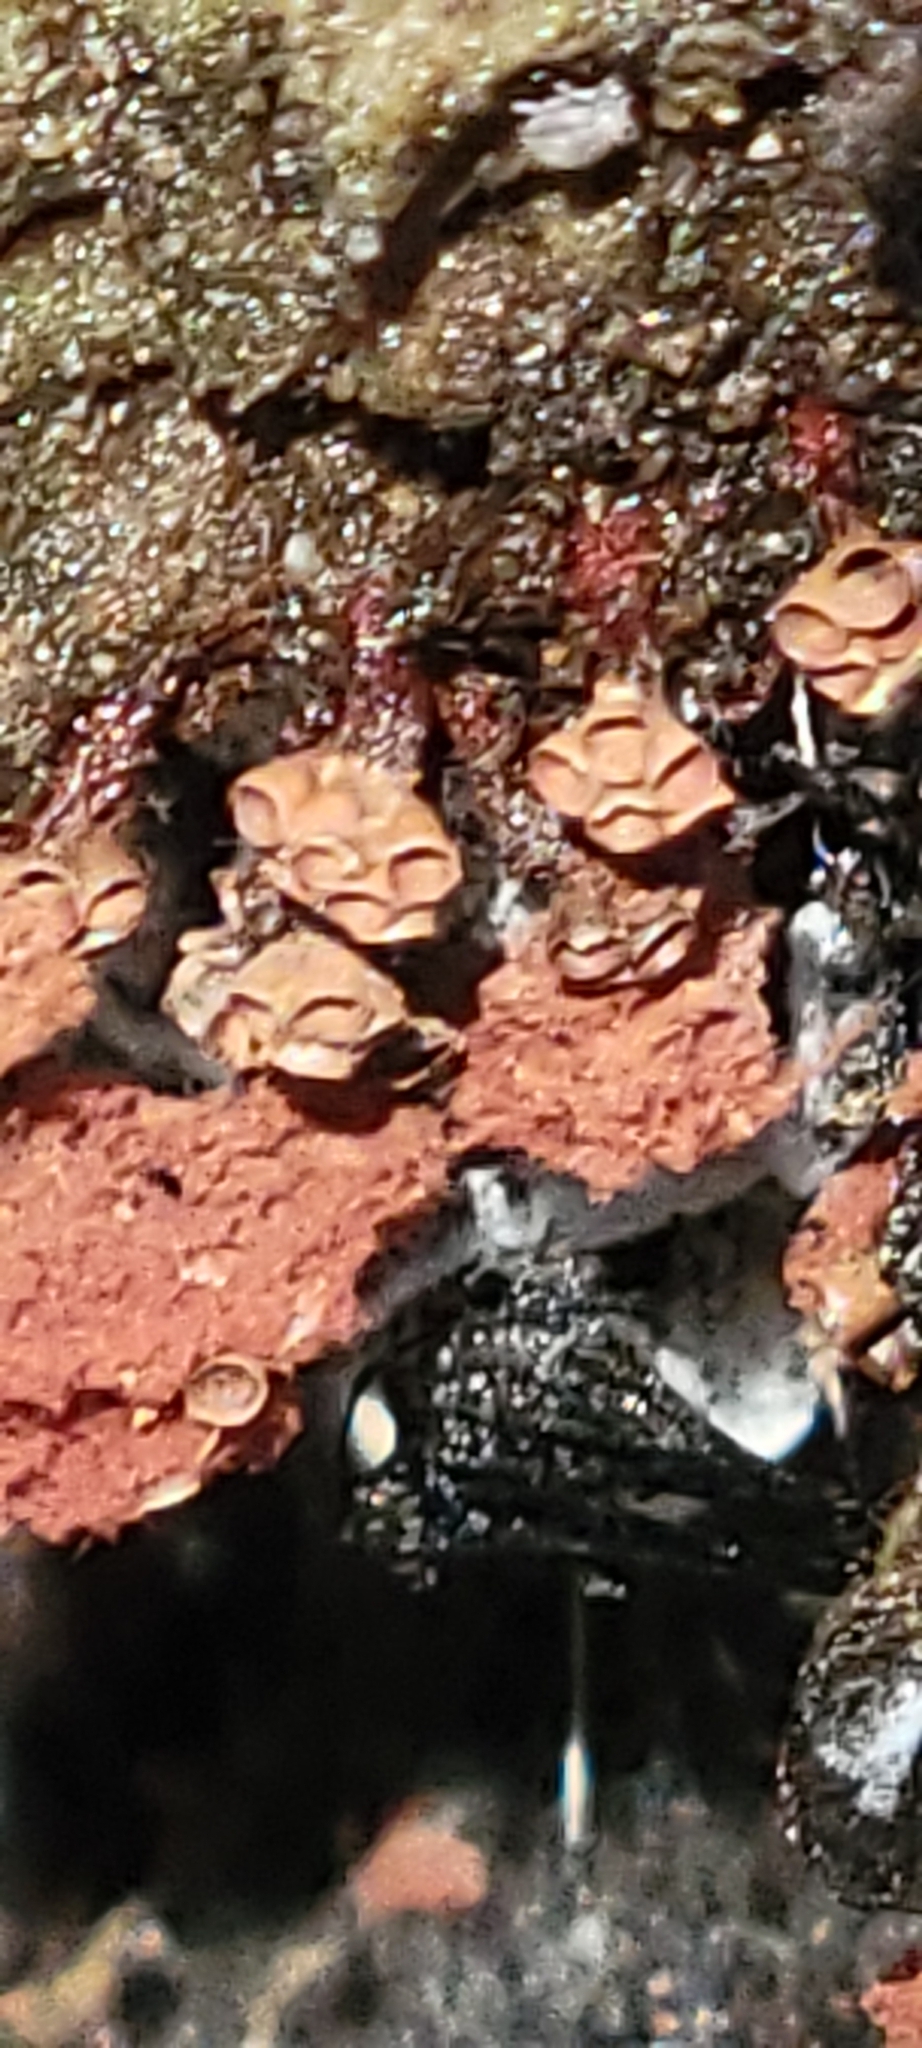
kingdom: Protozoa
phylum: Mycetozoa
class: Myxomycetes
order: Trichiales
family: Trichiaceae
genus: Metatrichia
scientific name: Metatrichia vesparia
